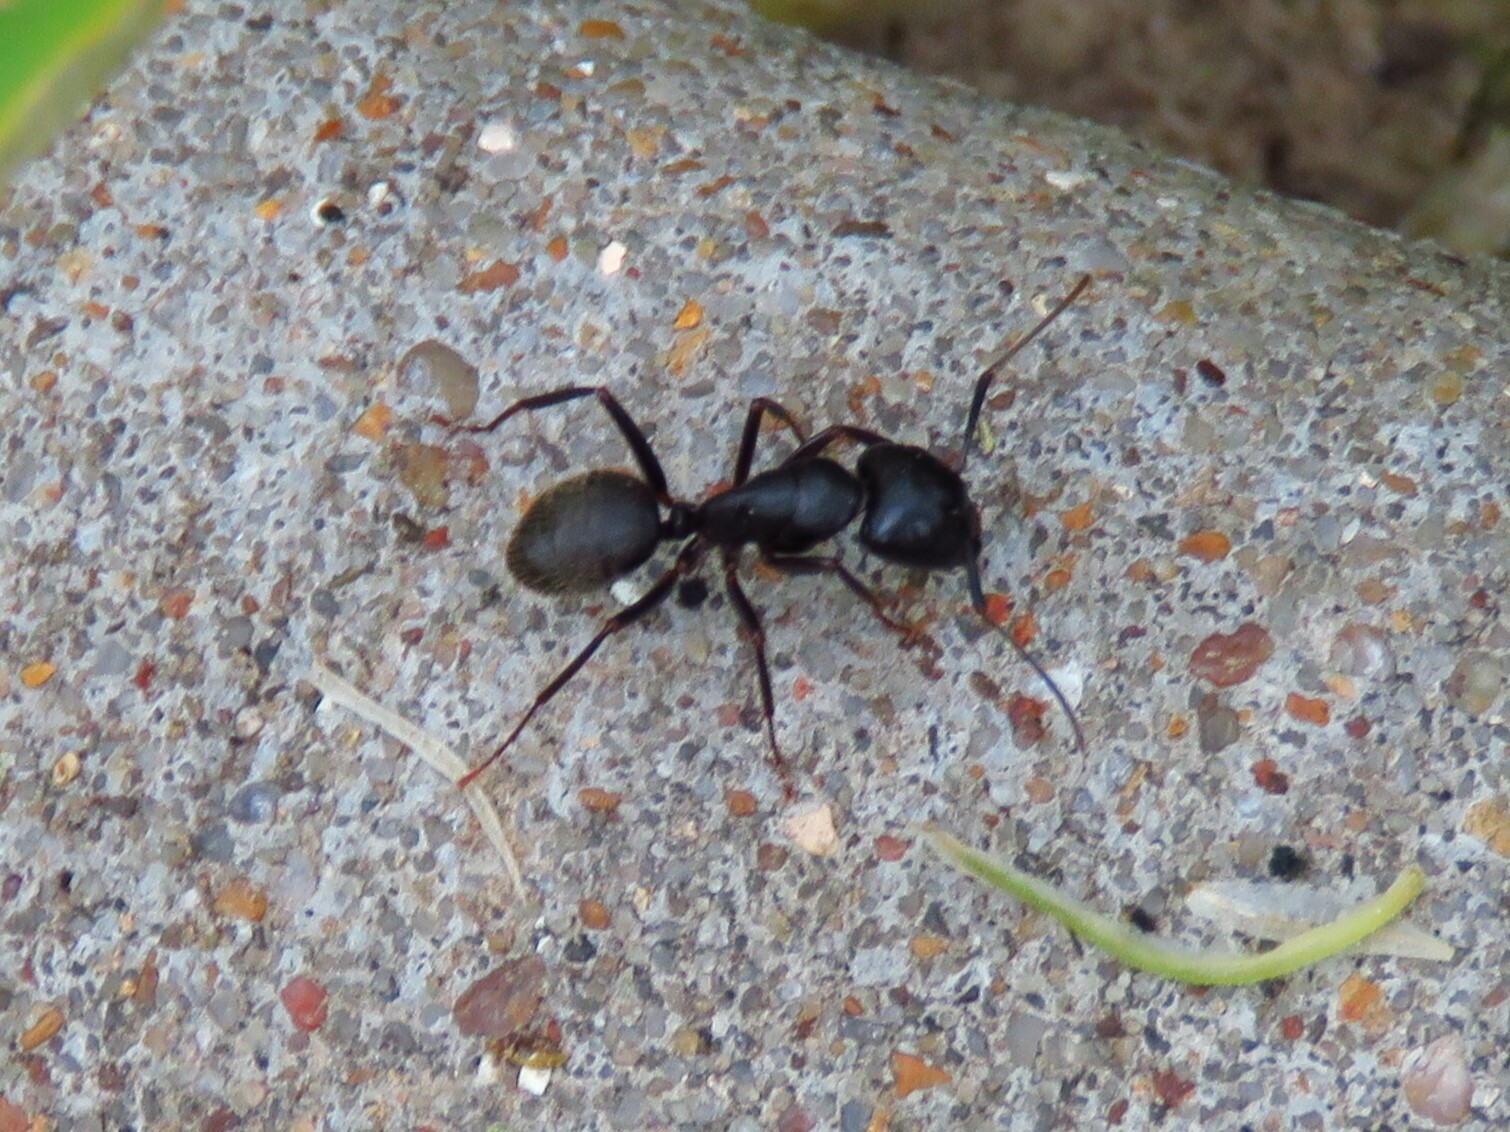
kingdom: Animalia
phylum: Arthropoda
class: Insecta
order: Hymenoptera
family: Formicidae
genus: Camponotus
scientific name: Camponotus pennsylvanicus
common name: Black carpenter ant
